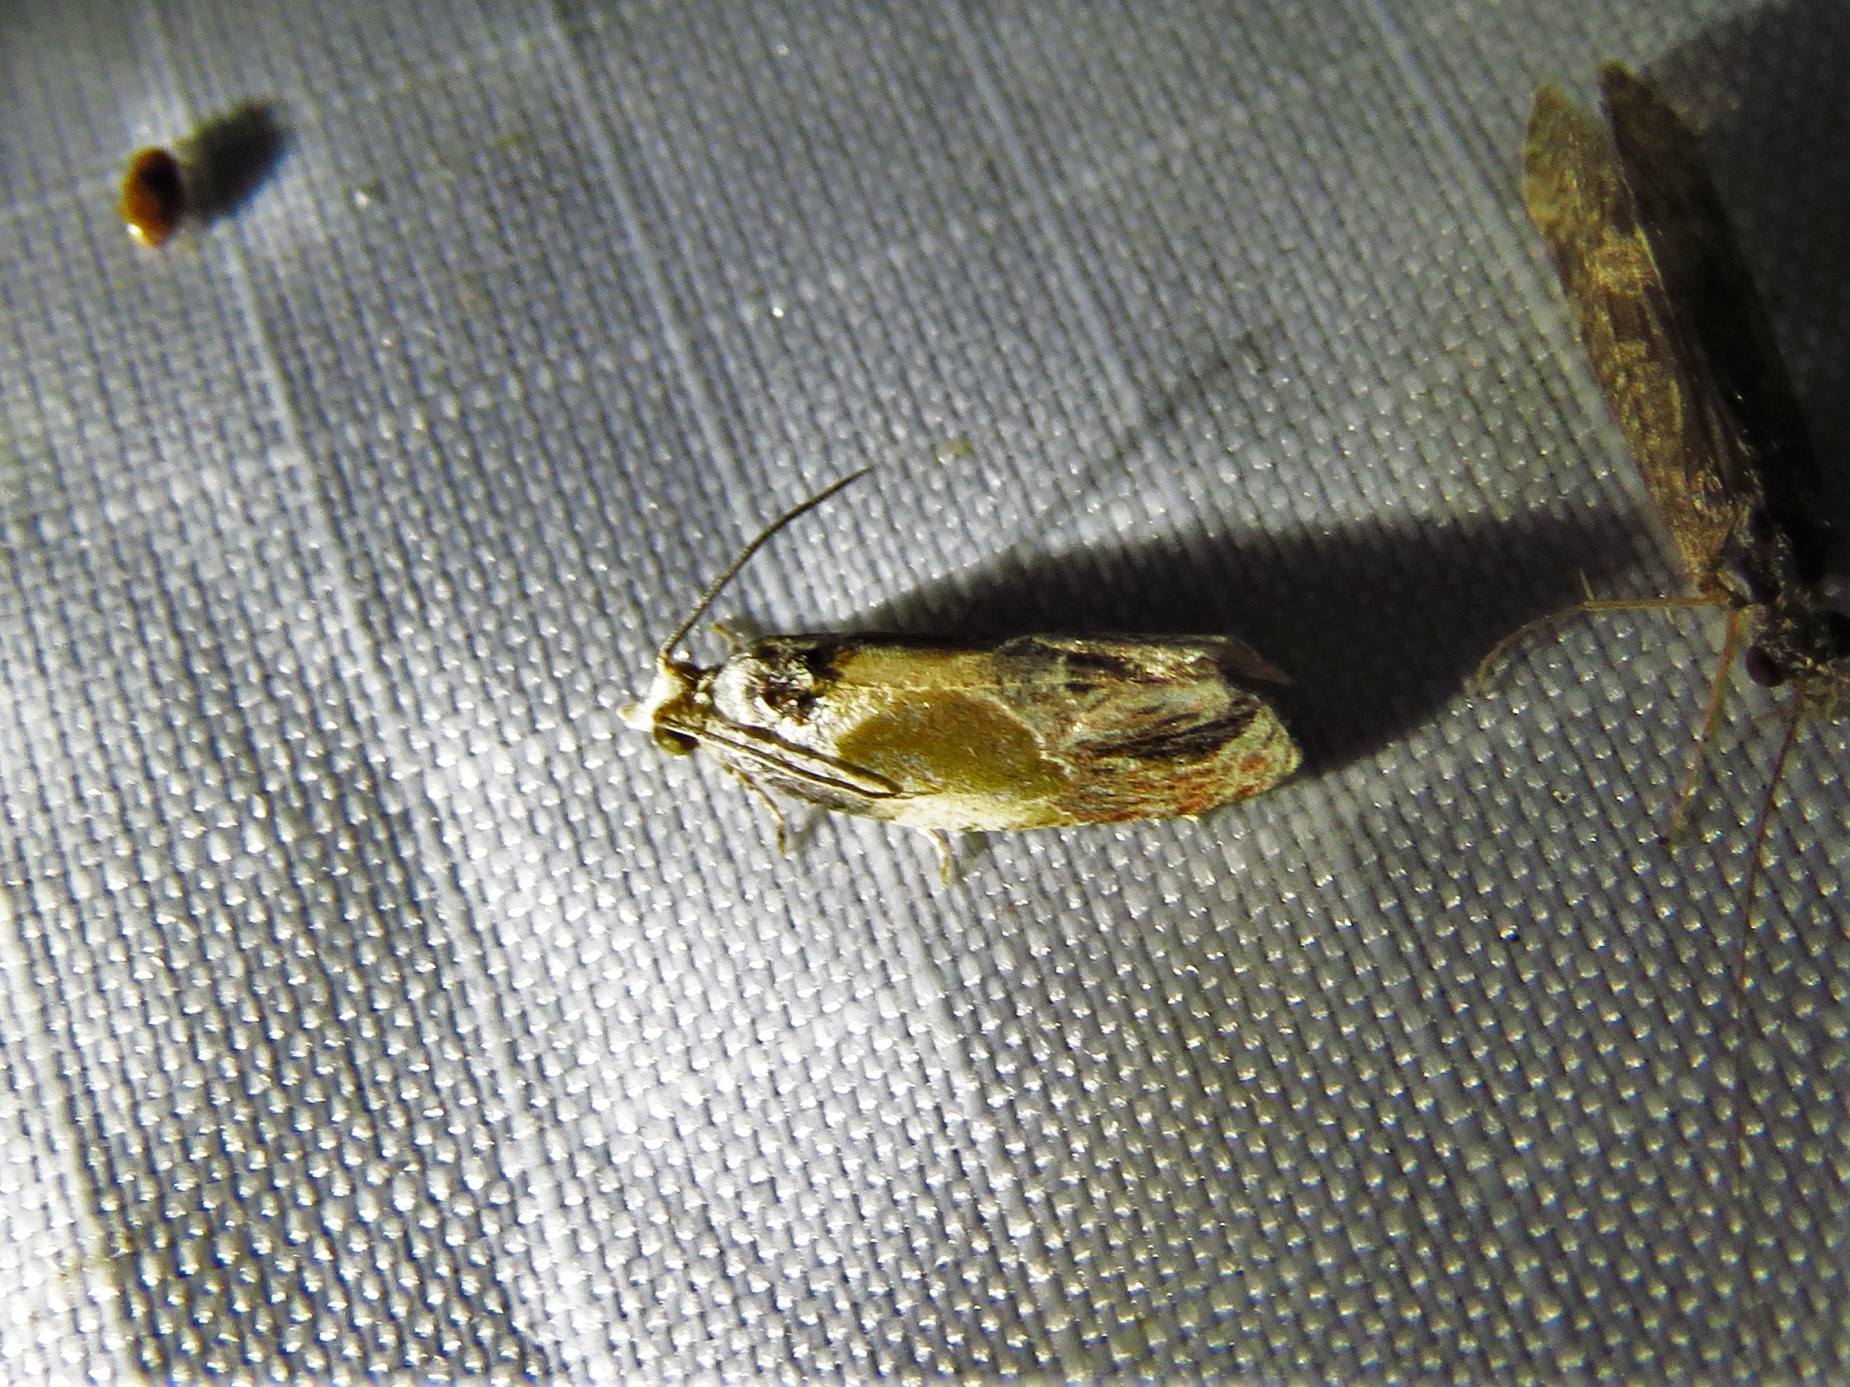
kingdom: Animalia
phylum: Arthropoda
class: Insecta
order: Lepidoptera
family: Tortricidae
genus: Eumarozia
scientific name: Eumarozia malachitana
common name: Sculptured moth
